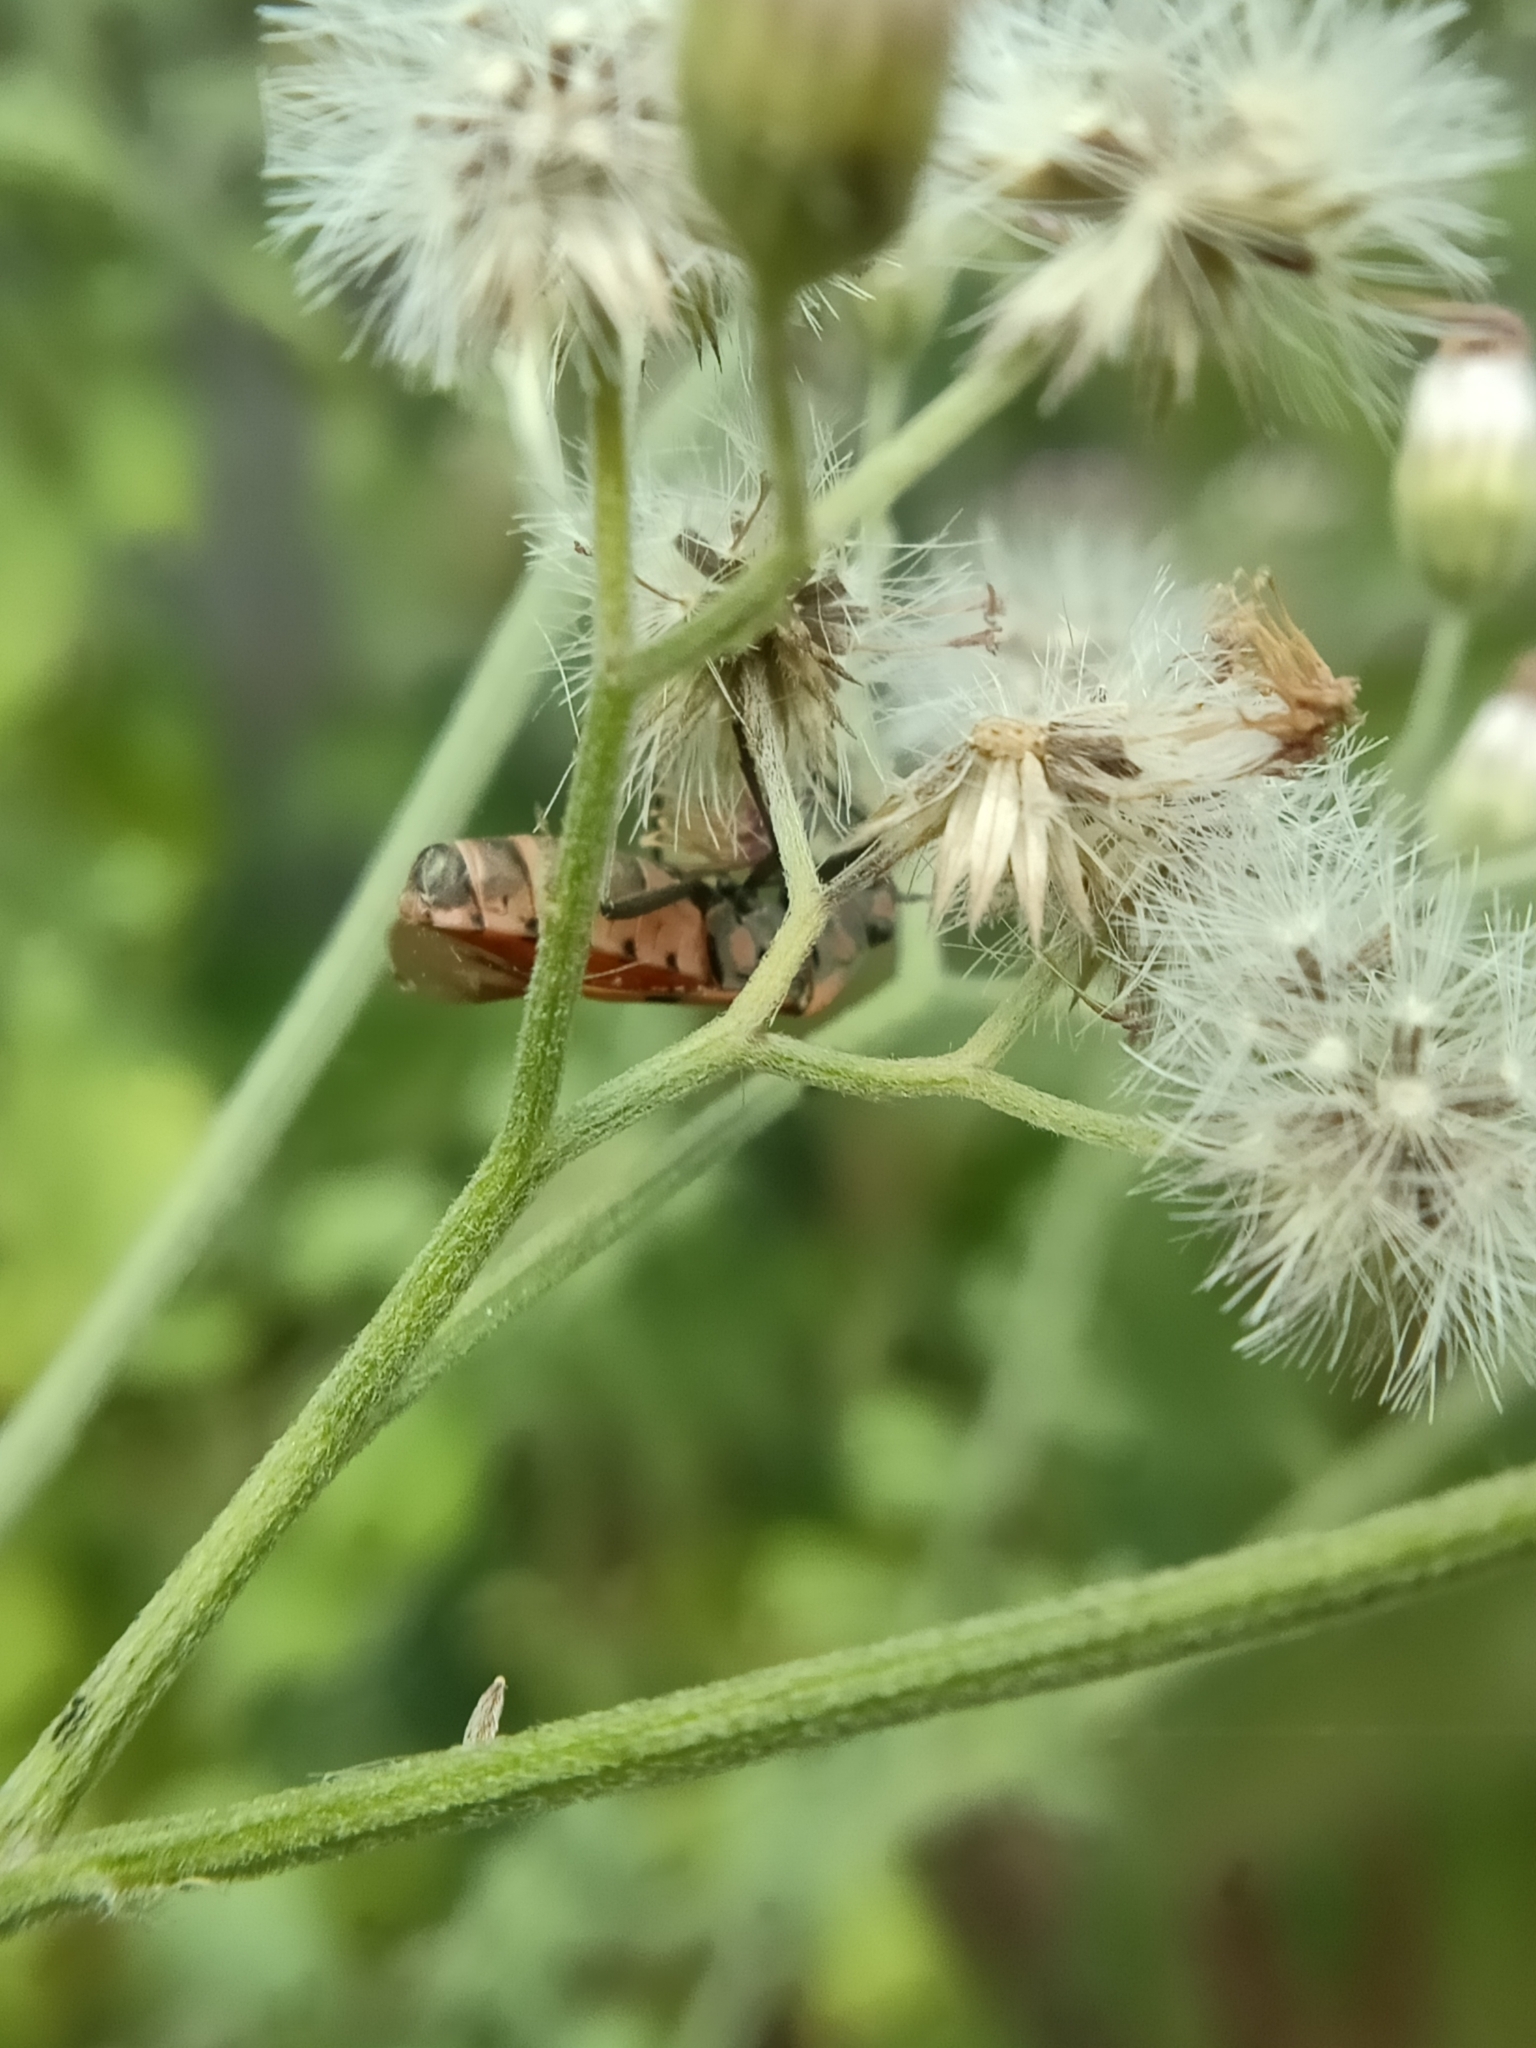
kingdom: Animalia
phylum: Arthropoda
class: Insecta
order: Hemiptera
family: Lygaeidae
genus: Spilostethus
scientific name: Spilostethus hospes
